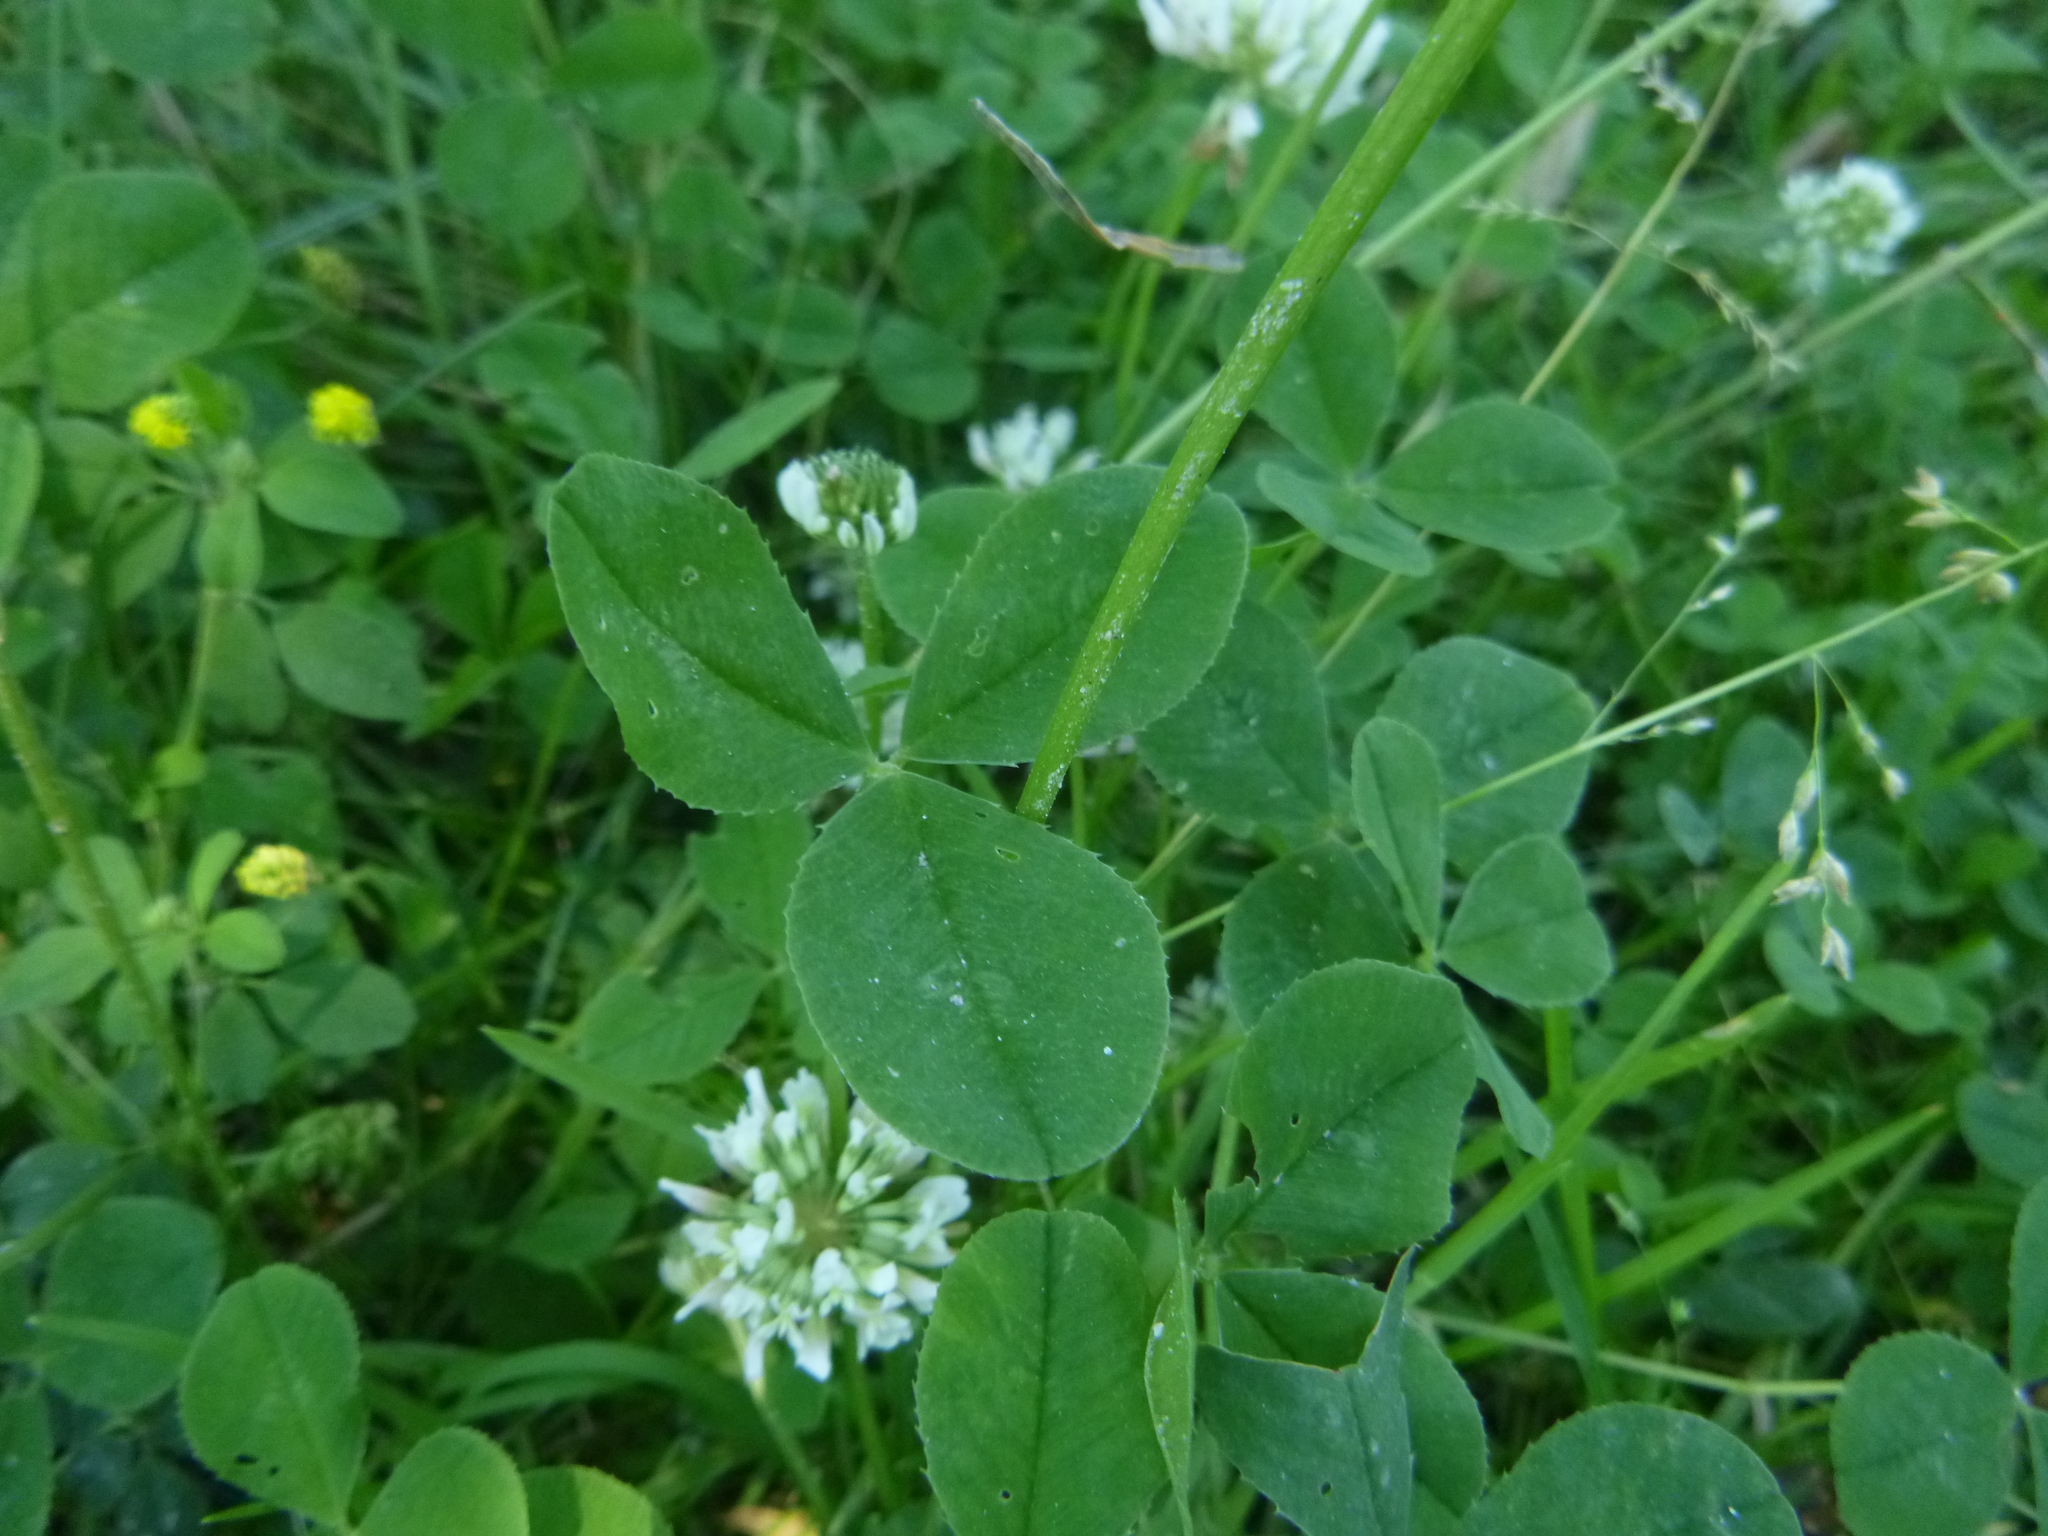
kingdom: Plantae
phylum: Tracheophyta
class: Magnoliopsida
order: Fabales
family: Fabaceae
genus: Trifolium
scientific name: Trifolium repens
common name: White clover
